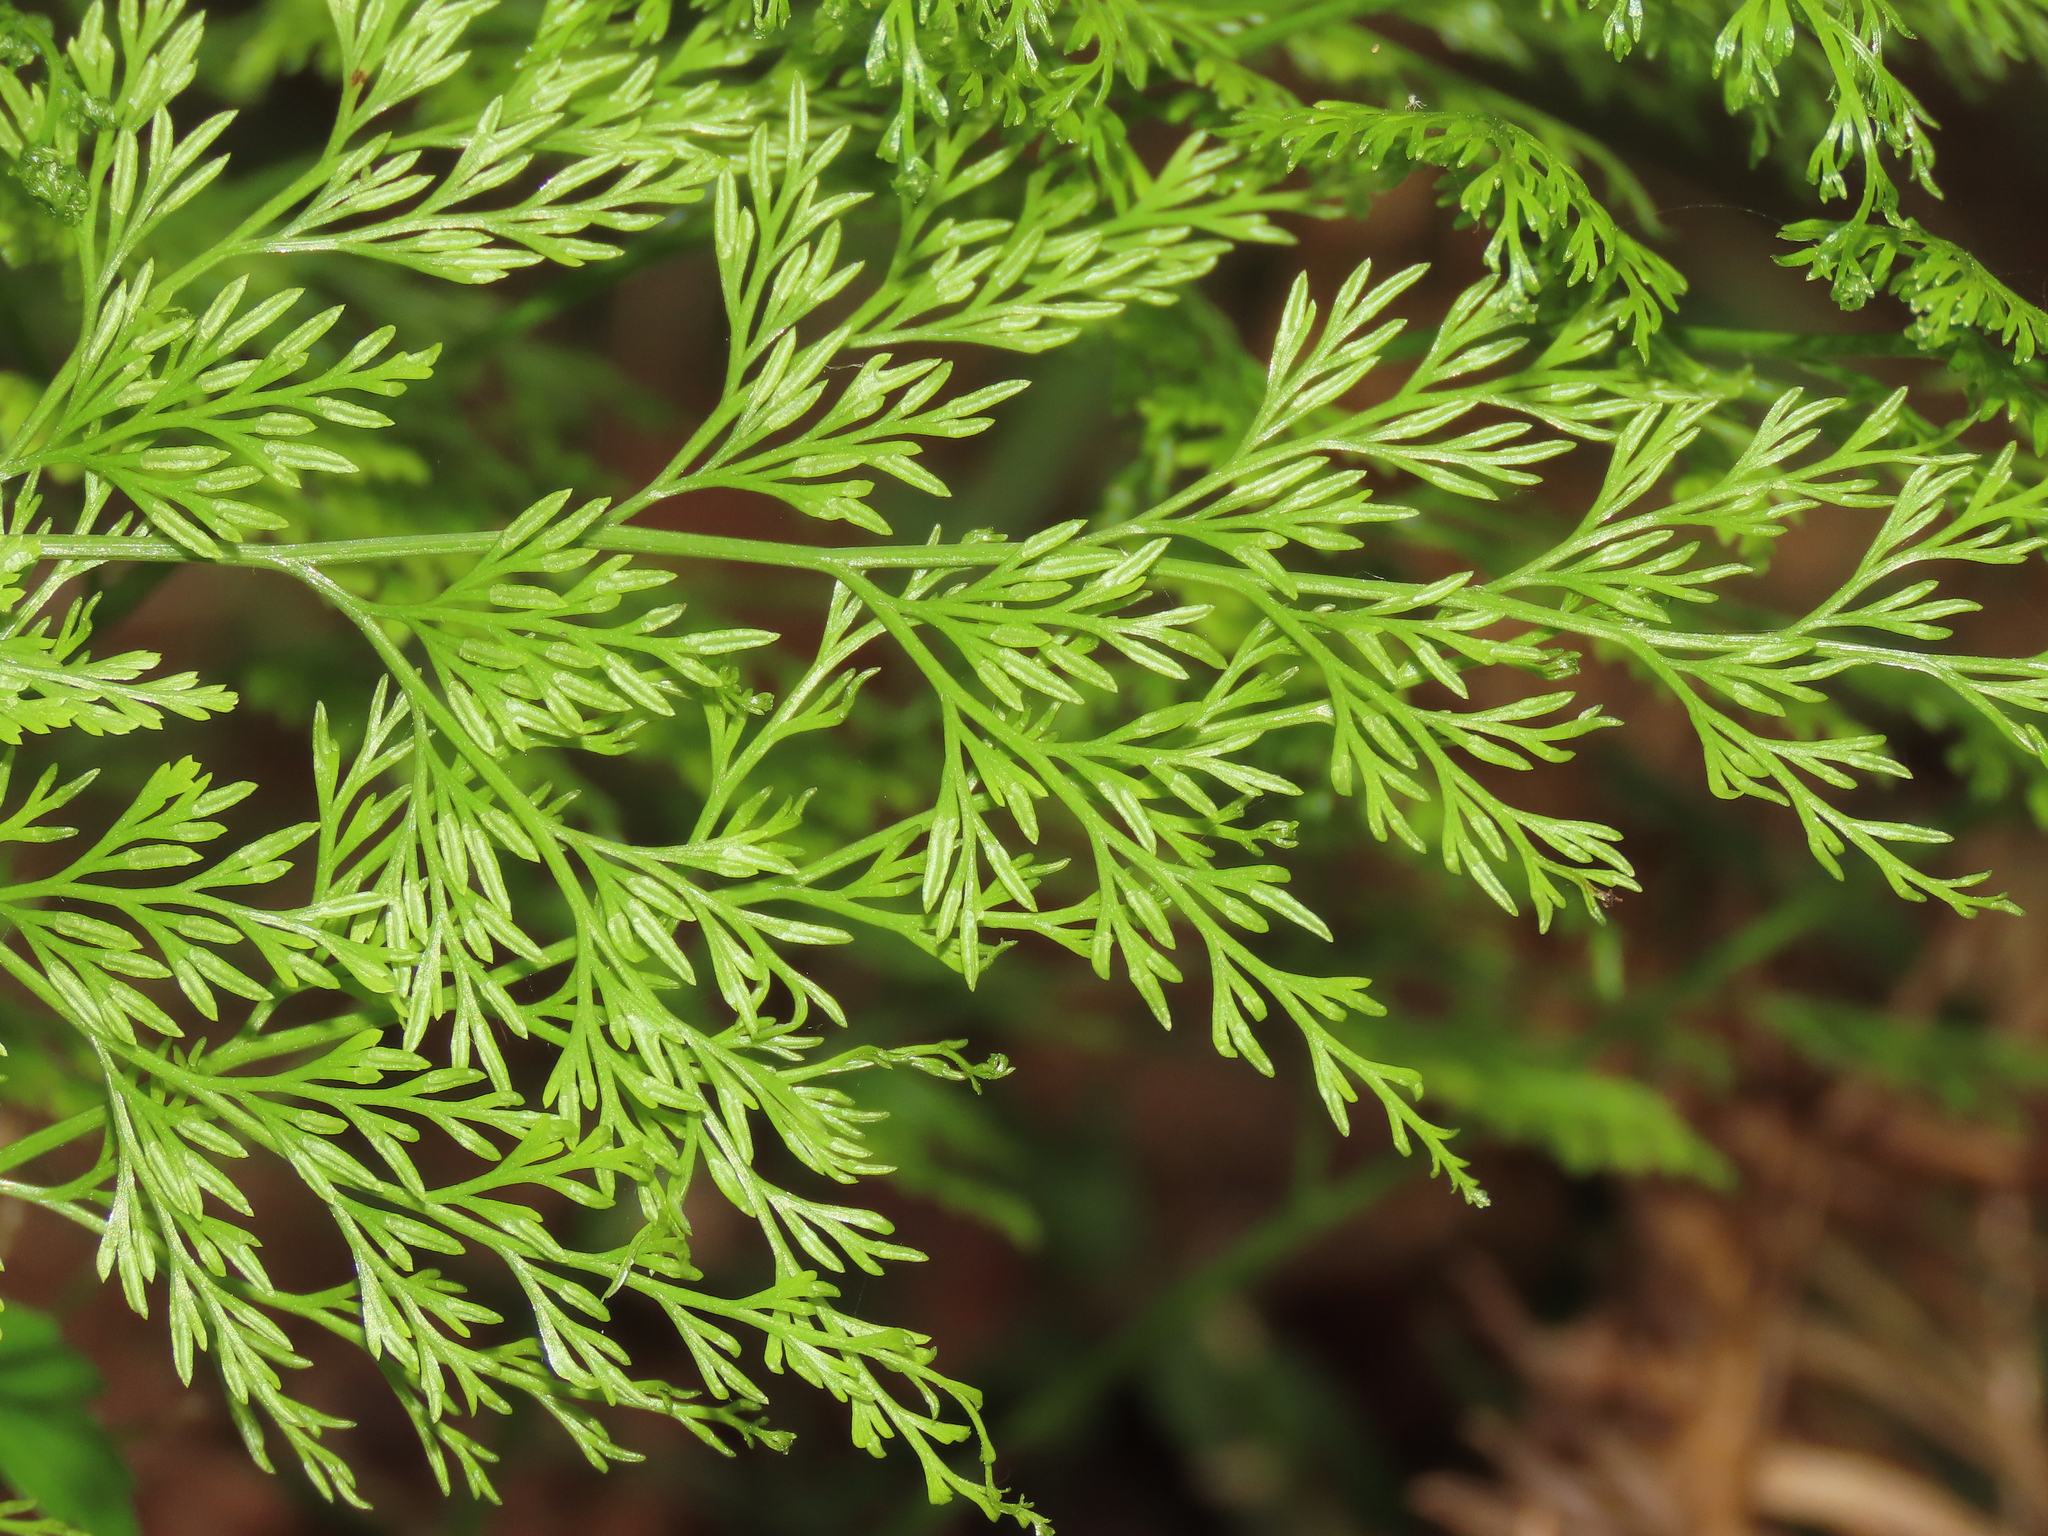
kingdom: Plantae
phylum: Tracheophyta
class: Polypodiopsida
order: Polypodiales
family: Pteridaceae
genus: Onychium
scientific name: Onychium japonicum
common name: Carrot fern
